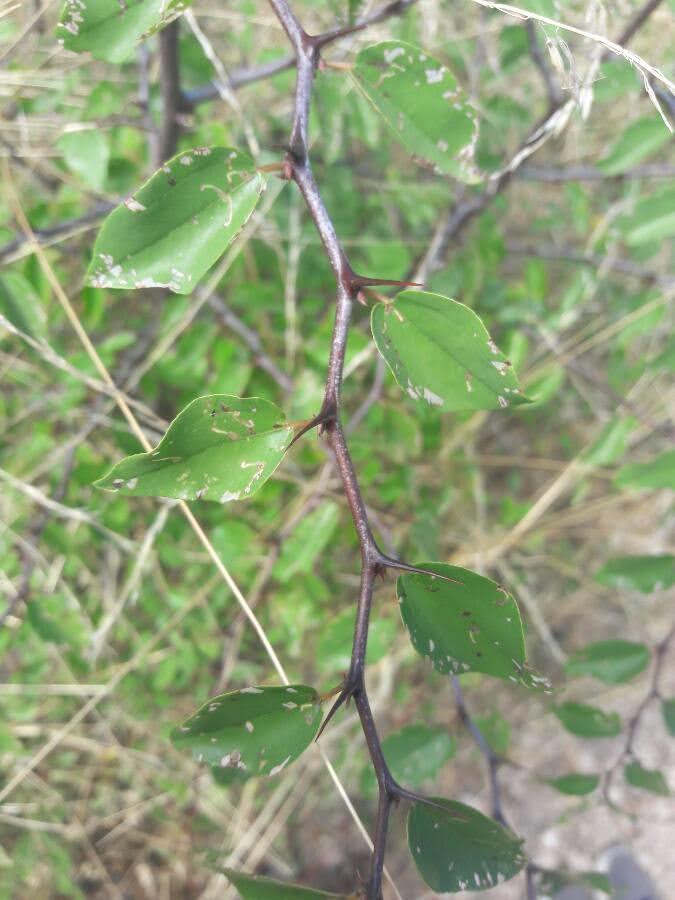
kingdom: Plantae
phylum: Tracheophyta
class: Magnoliopsida
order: Rosales
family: Rhamnaceae
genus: Paliurus
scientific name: Paliurus spina-christi
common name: Jeruselem thorn
